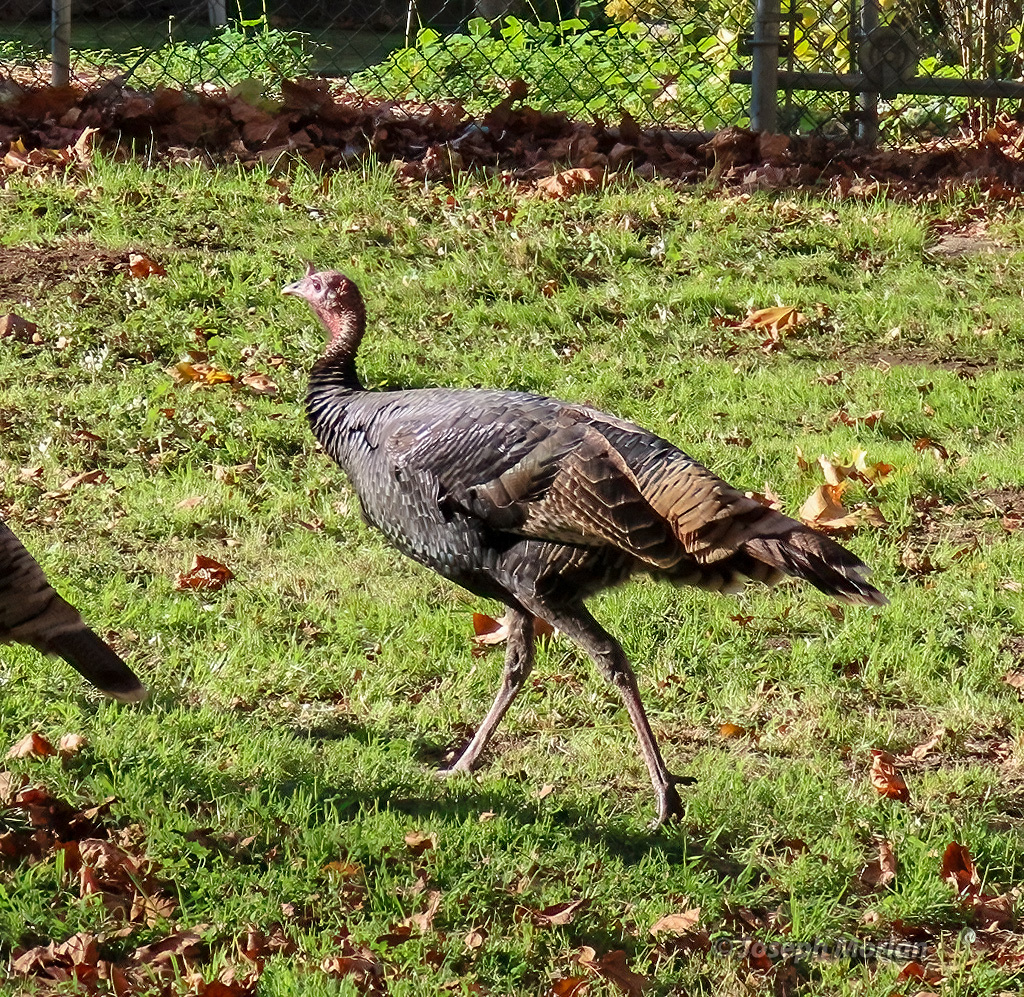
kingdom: Animalia
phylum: Chordata
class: Aves
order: Galliformes
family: Phasianidae
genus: Meleagris
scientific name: Meleagris gallopavo
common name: Wild turkey
